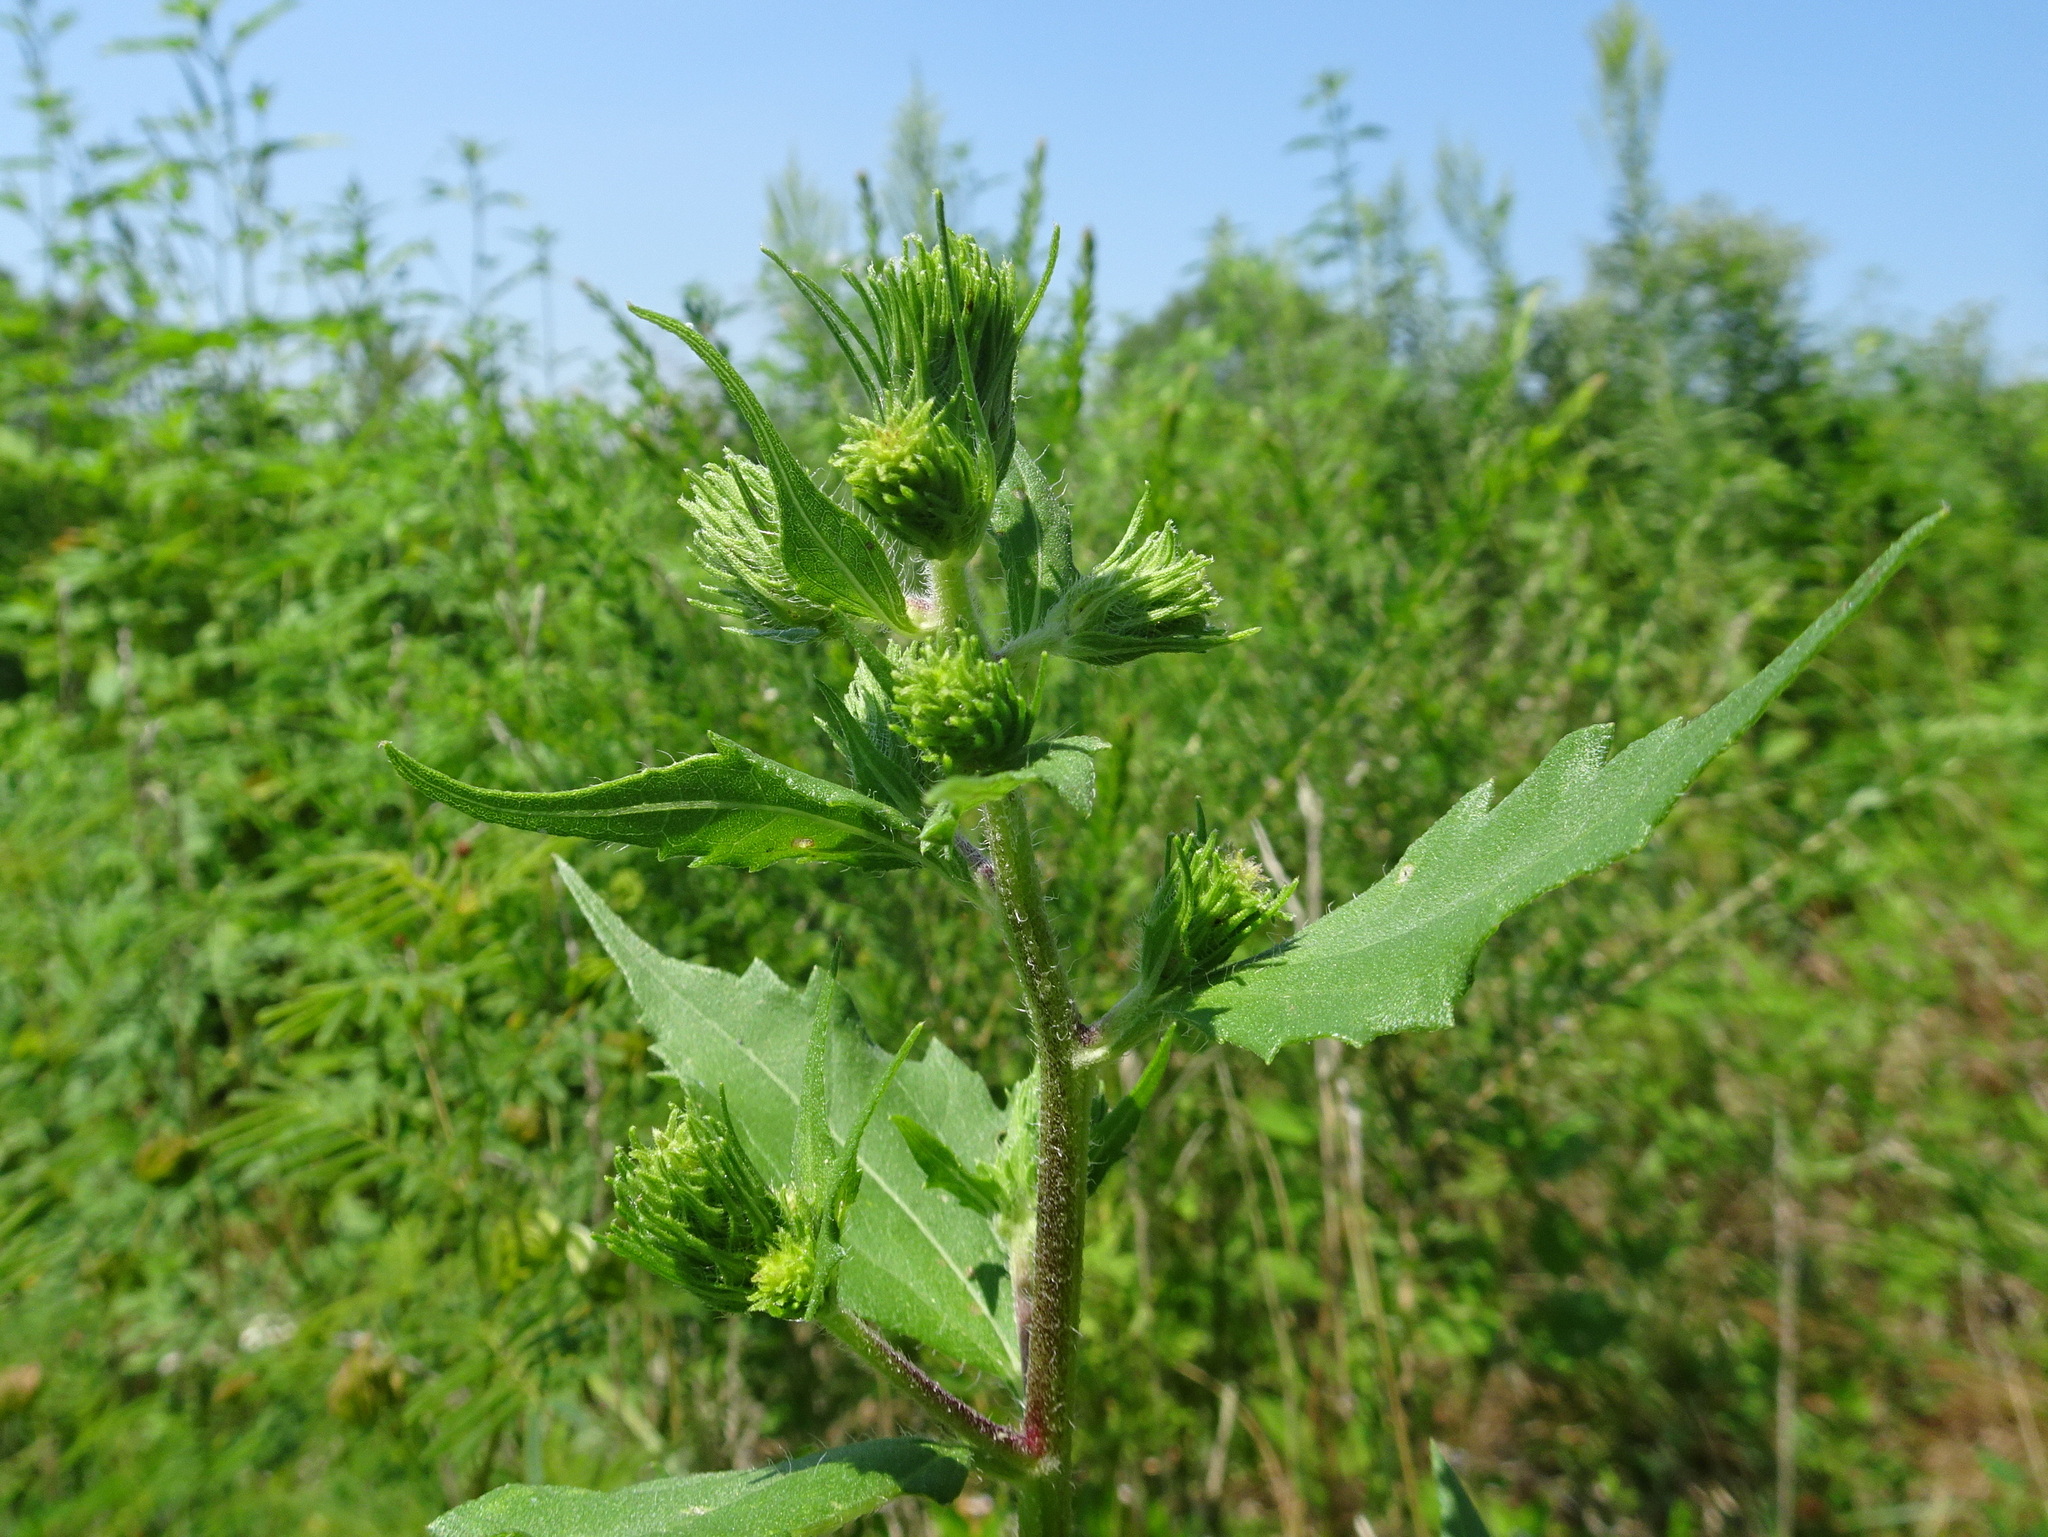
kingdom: Plantae
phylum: Tracheophyta
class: Magnoliopsida
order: Asterales
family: Asteraceae
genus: Iva
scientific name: Iva annua
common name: Marsh-elder
